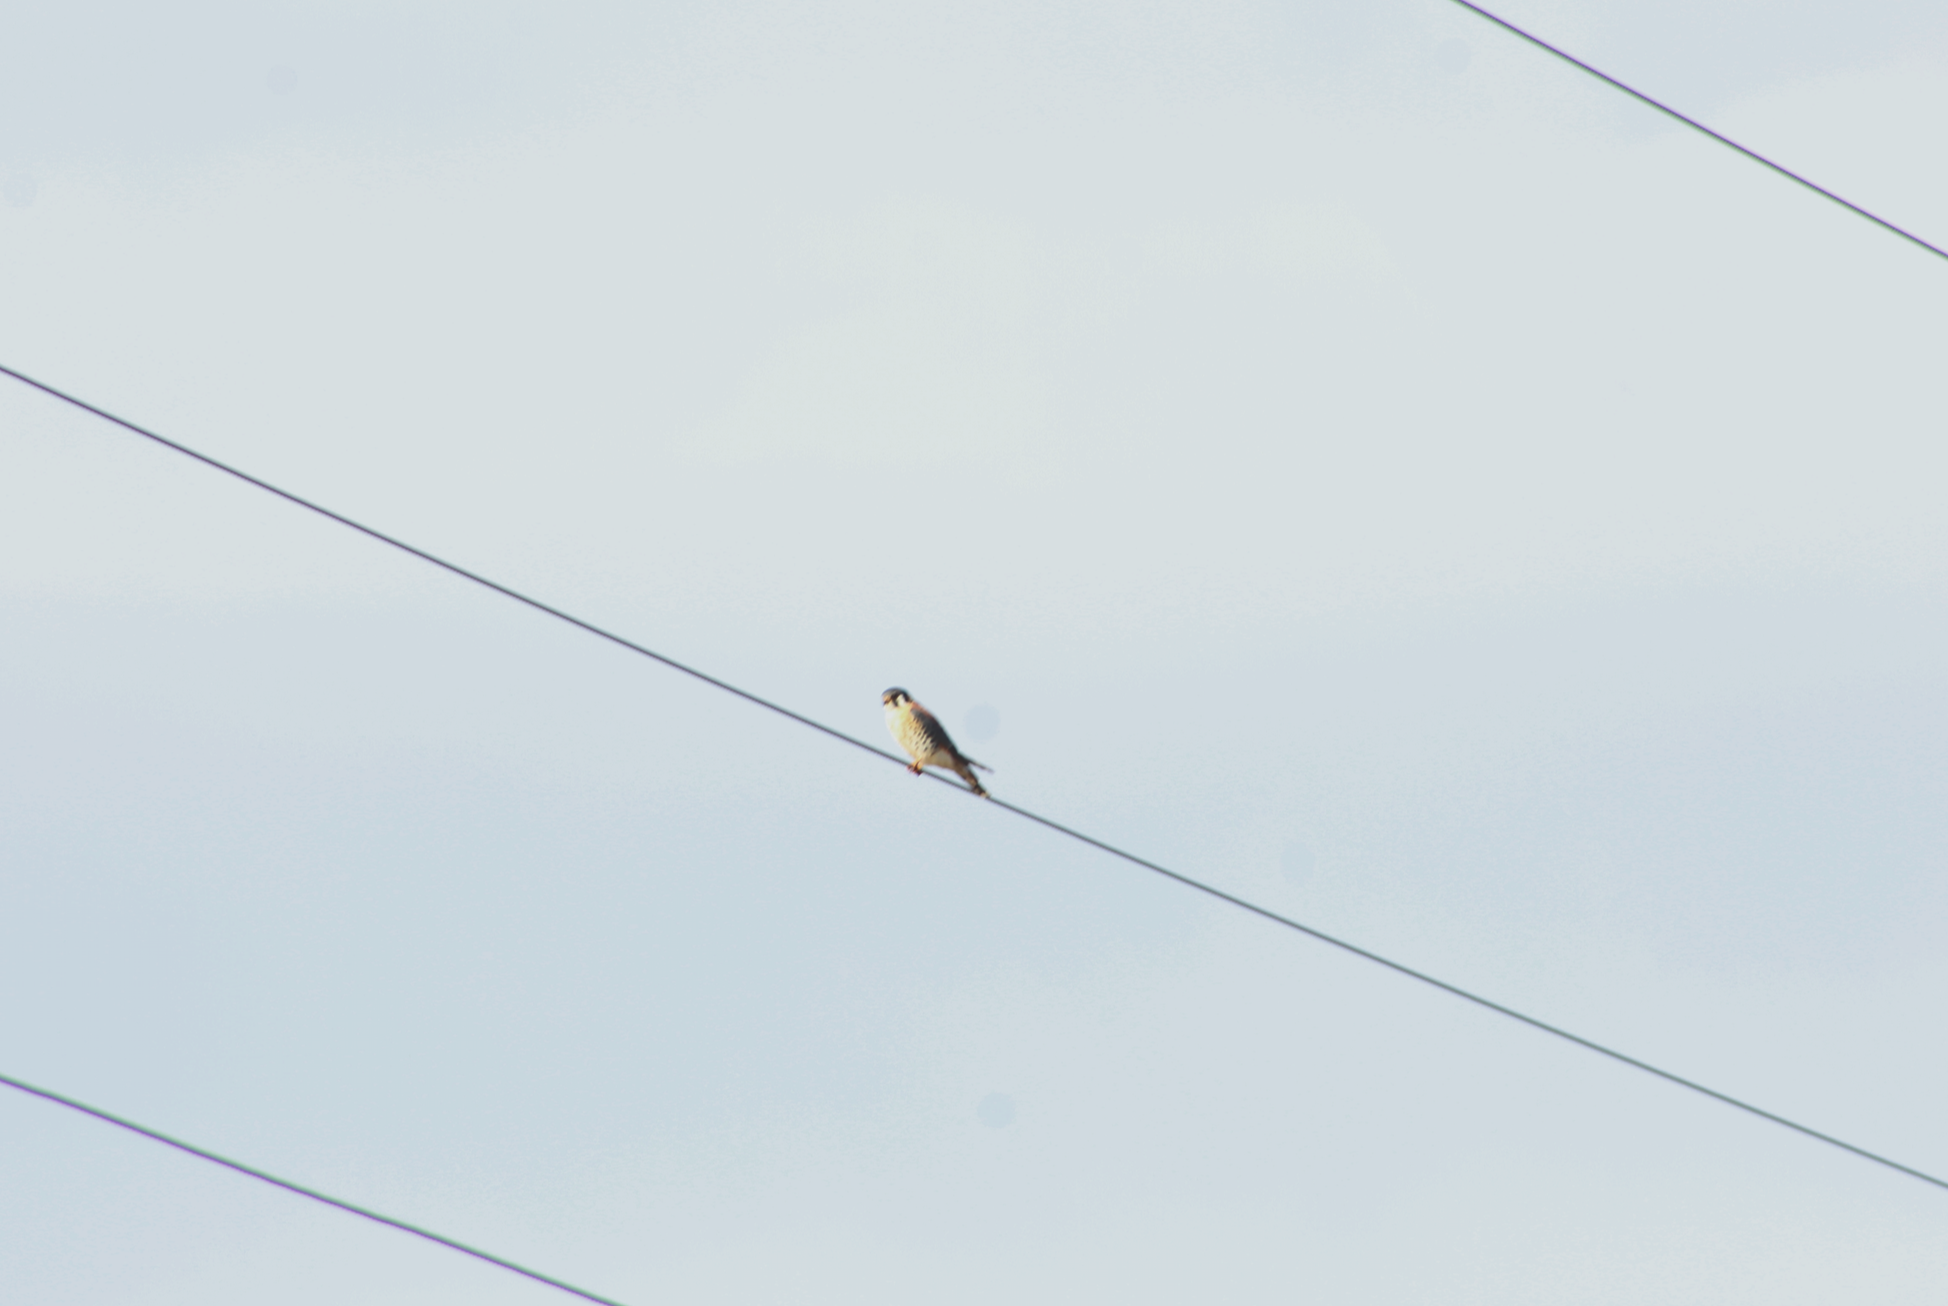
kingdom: Animalia
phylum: Chordata
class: Aves
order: Falconiformes
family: Falconidae
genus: Falco
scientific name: Falco sparverius
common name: American kestrel
